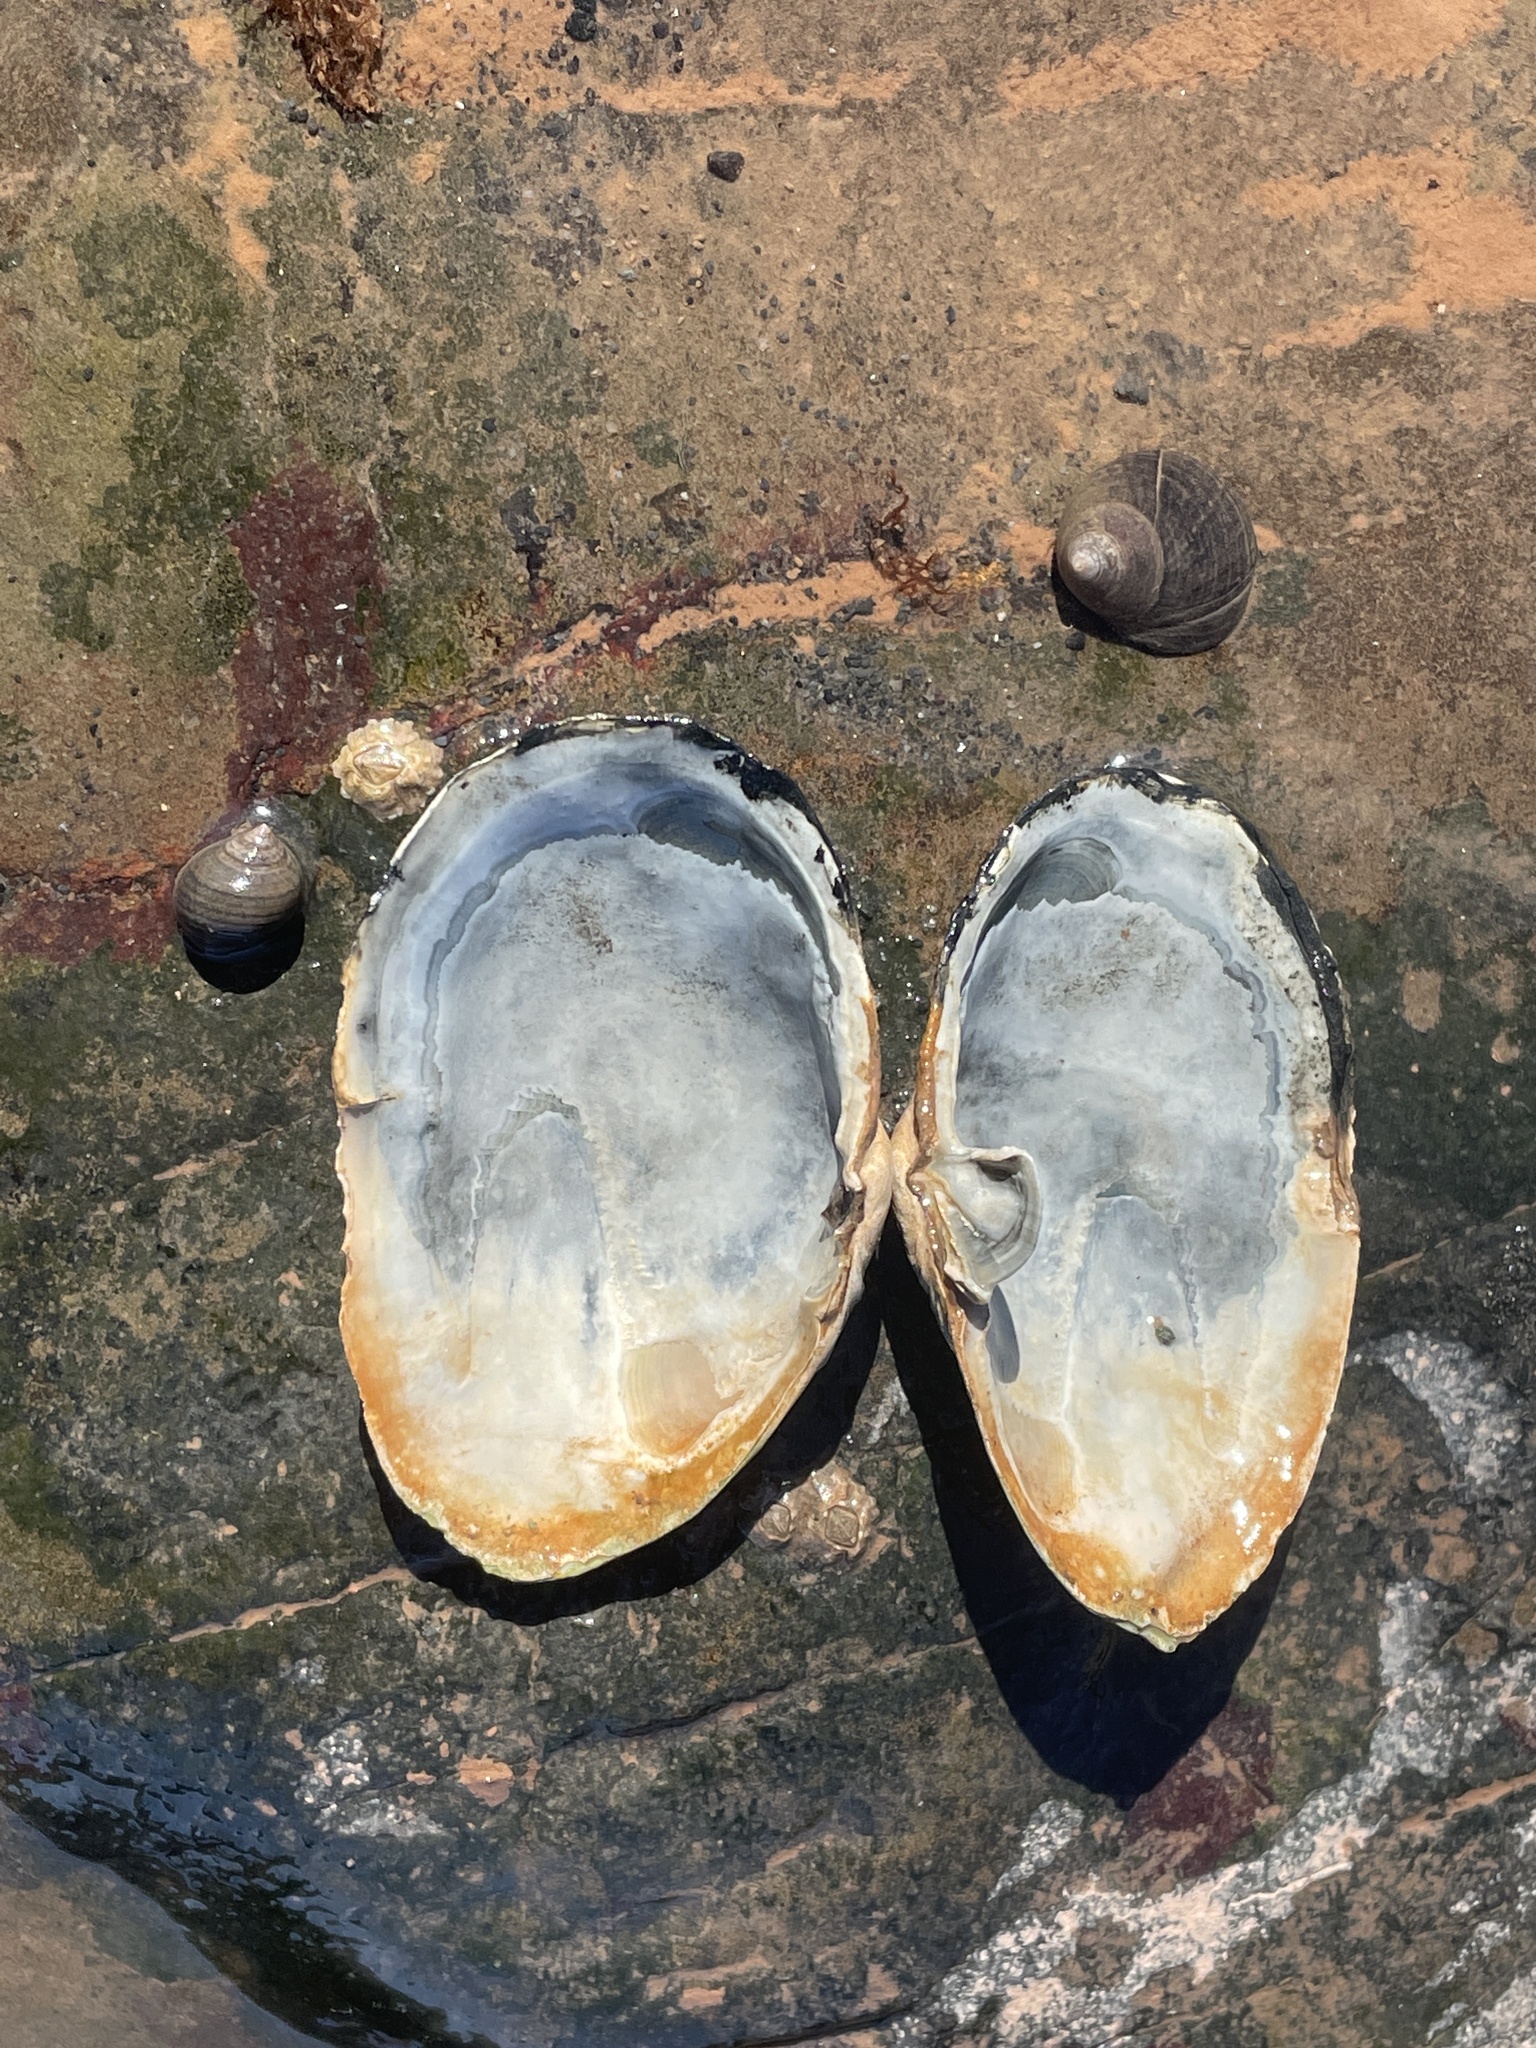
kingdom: Animalia
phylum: Mollusca
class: Bivalvia
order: Myida
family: Myidae
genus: Mya
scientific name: Mya arenaria
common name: Soft-shelled clam
